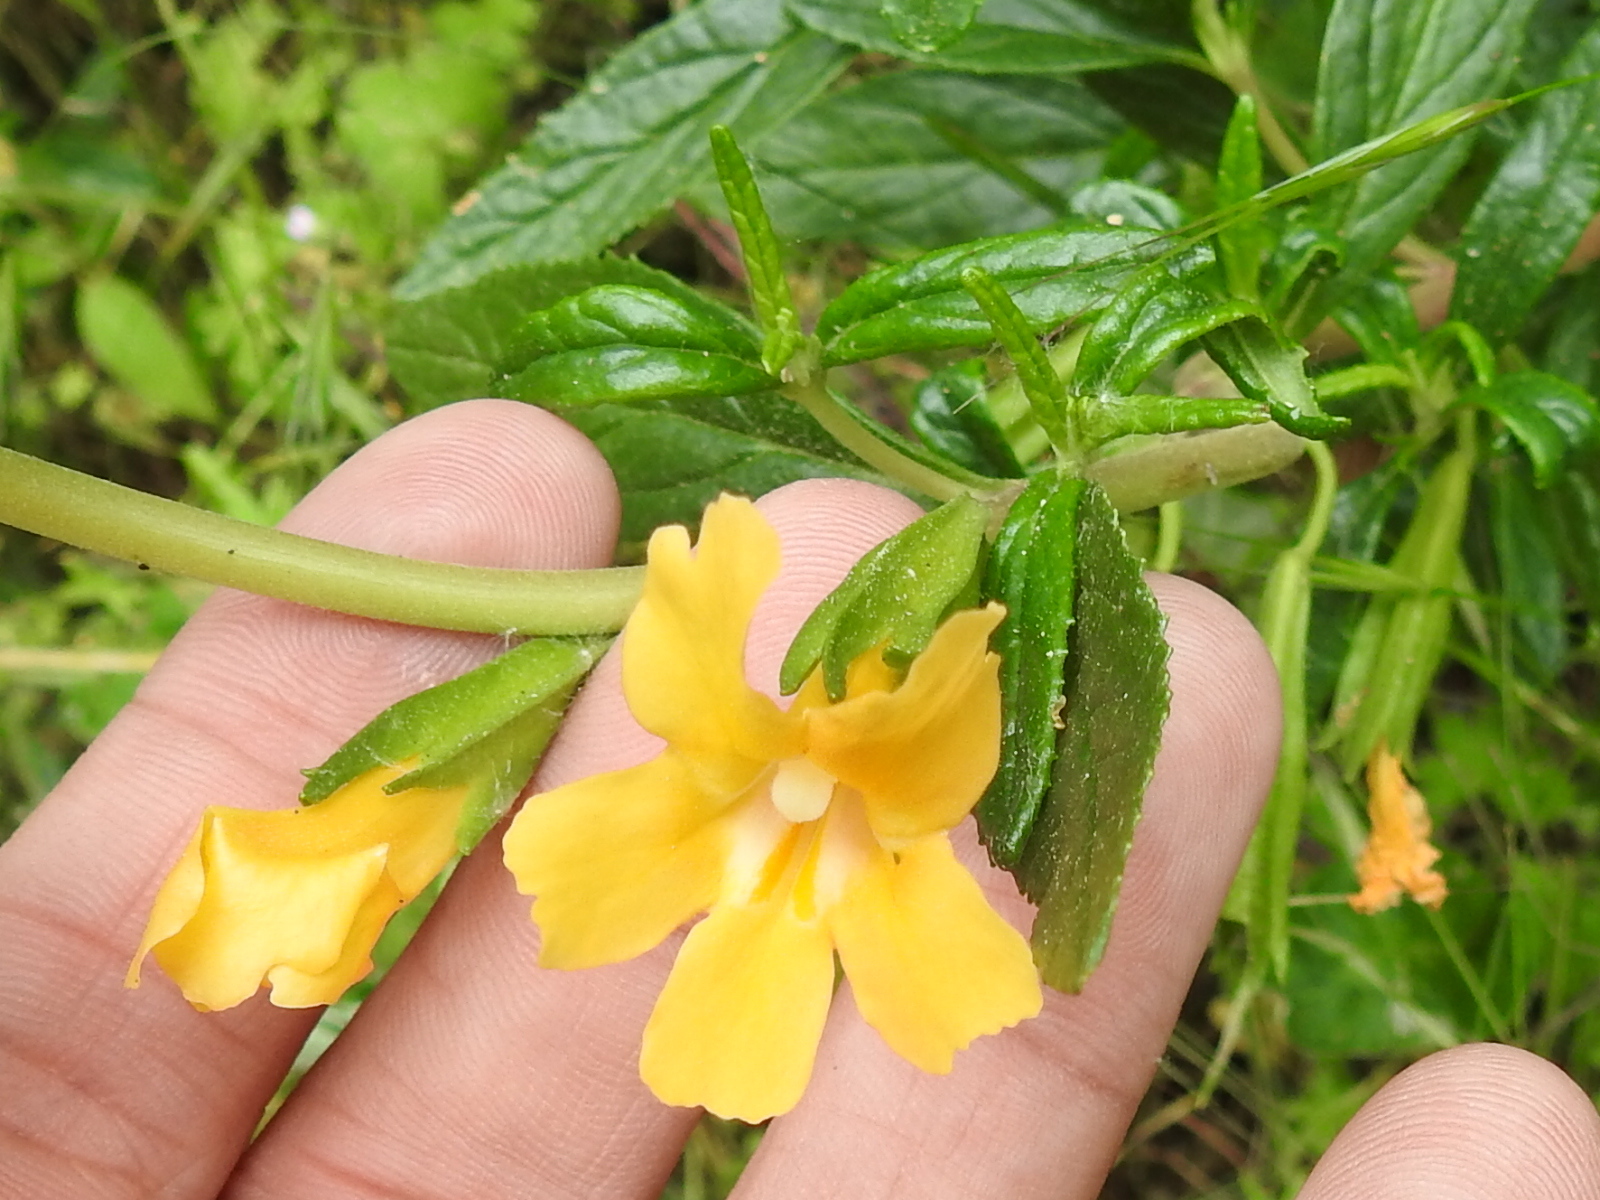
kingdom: Plantae
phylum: Tracheophyta
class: Magnoliopsida
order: Lamiales
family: Phrymaceae
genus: Diplacus
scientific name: Diplacus aurantiacus
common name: Bush monkey-flower
